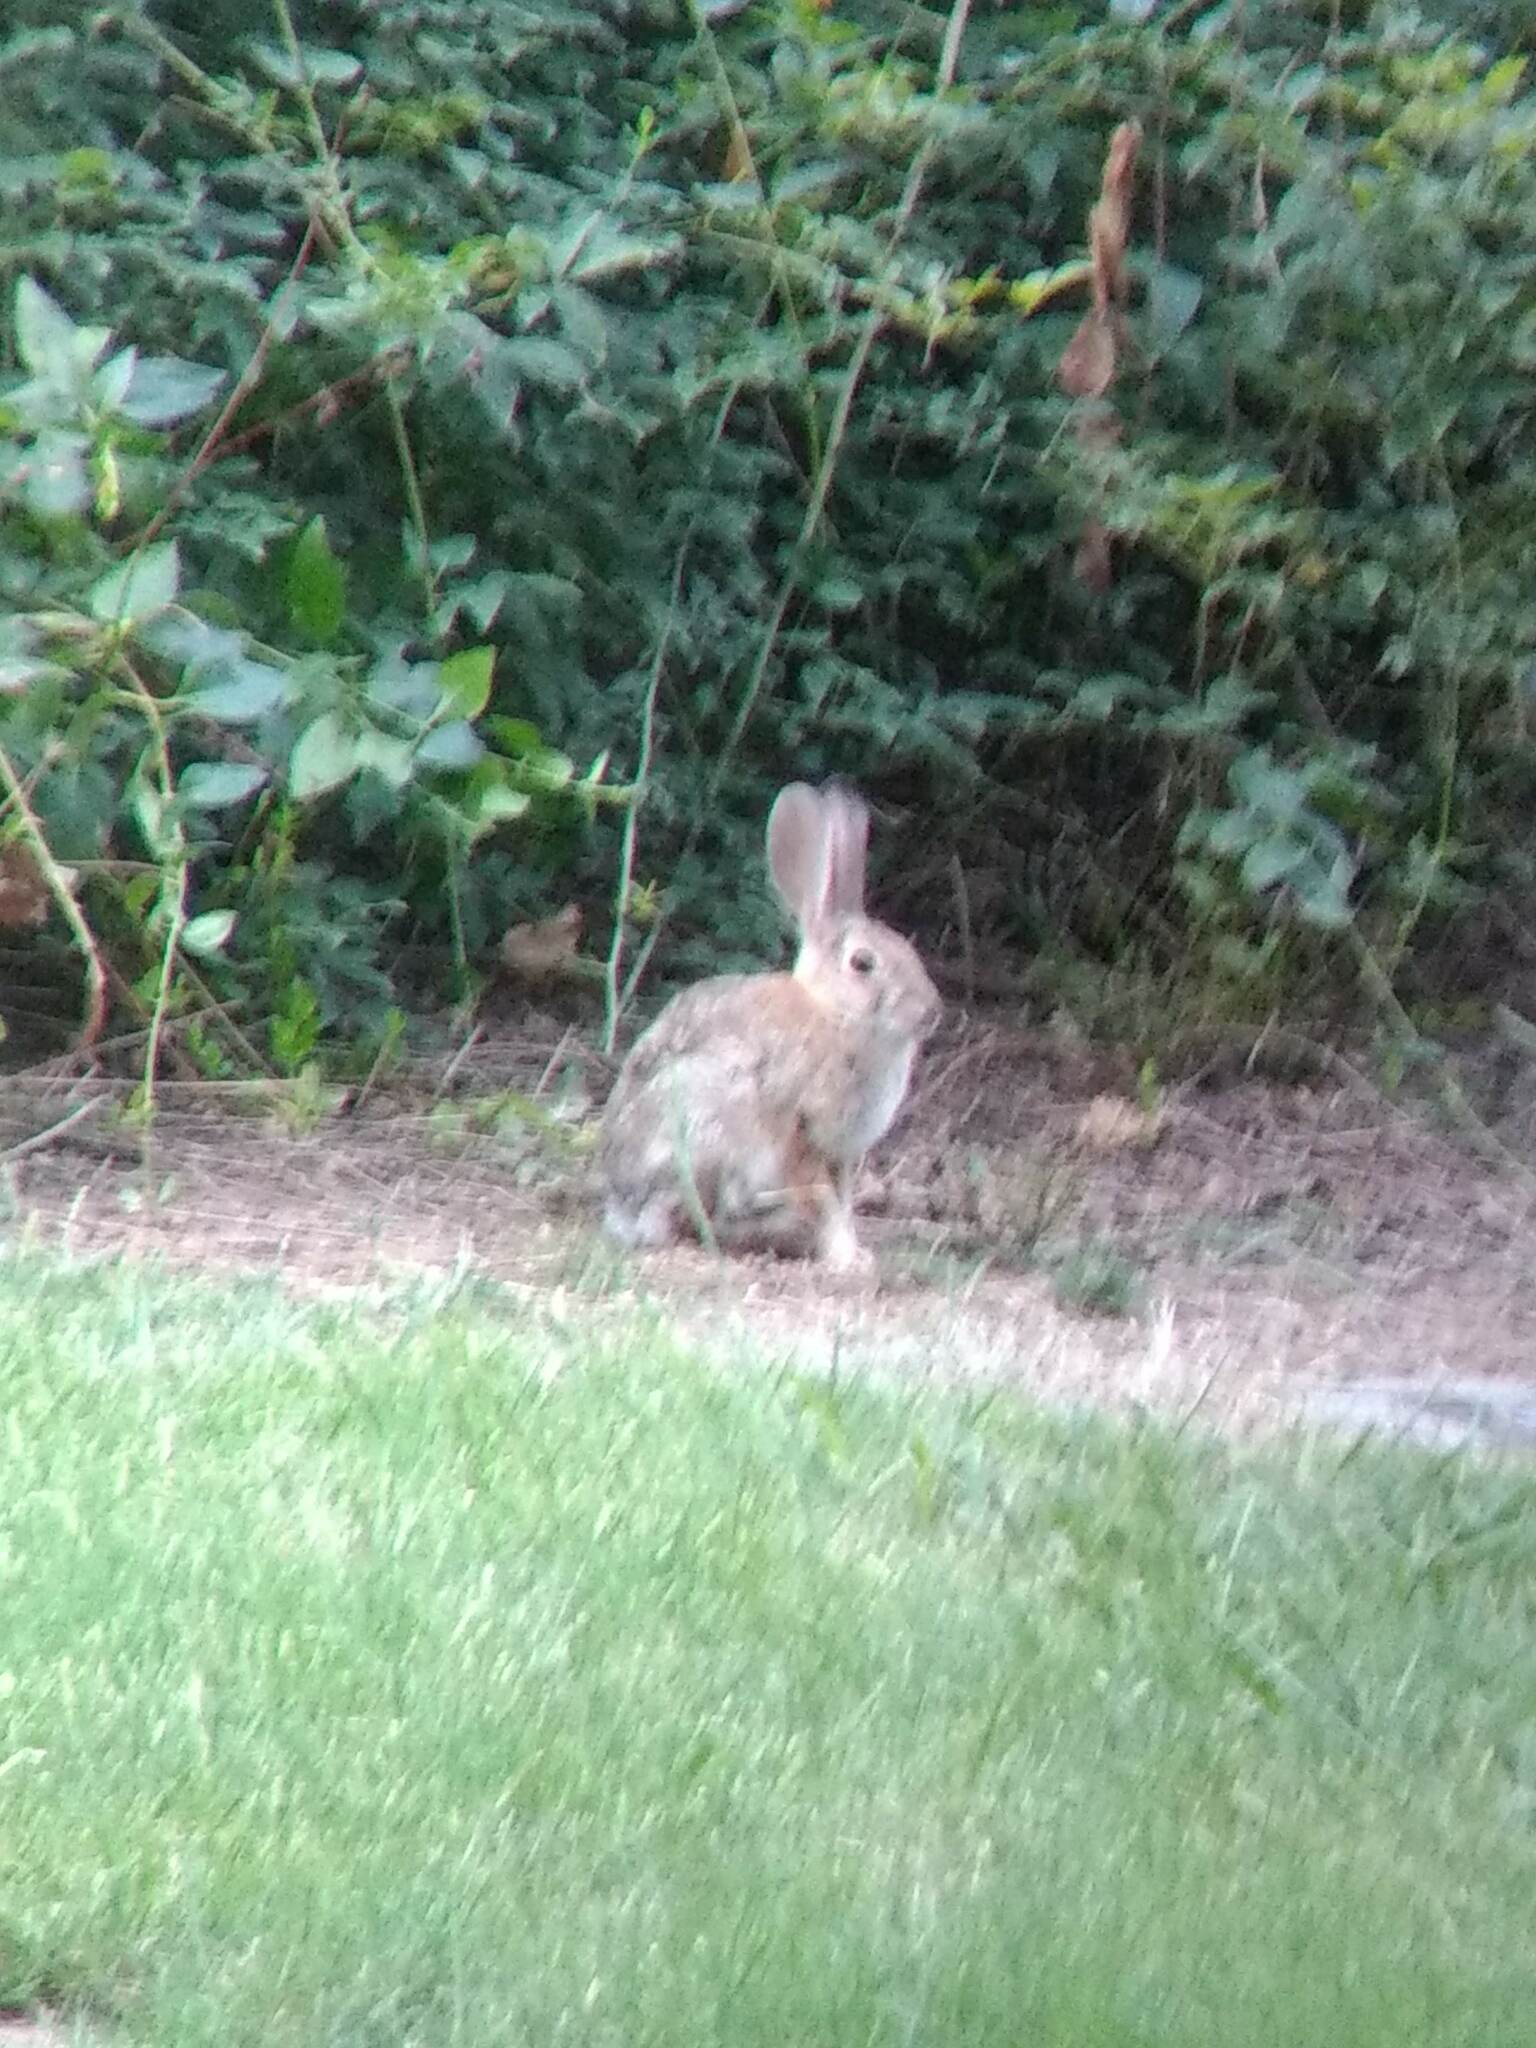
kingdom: Animalia
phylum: Chordata
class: Mammalia
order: Lagomorpha
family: Leporidae
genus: Sylvilagus
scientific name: Sylvilagus audubonii
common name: Desert cottontail
